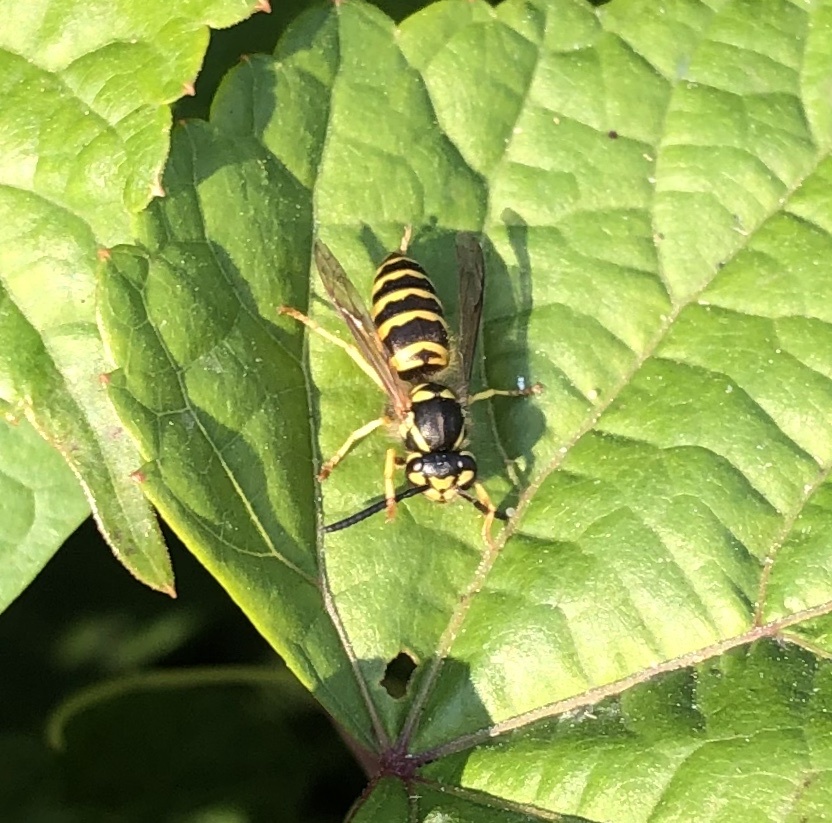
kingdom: Animalia
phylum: Arthropoda
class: Insecta
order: Hymenoptera
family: Vespidae
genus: Vespula
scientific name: Vespula maculifrons
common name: Eastern yellowjacket
